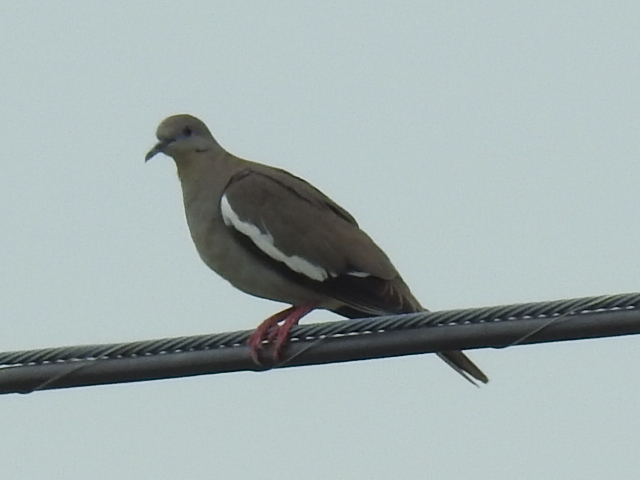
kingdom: Animalia
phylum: Chordata
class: Aves
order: Columbiformes
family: Columbidae
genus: Zenaida
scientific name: Zenaida asiatica
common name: White-winged dove
